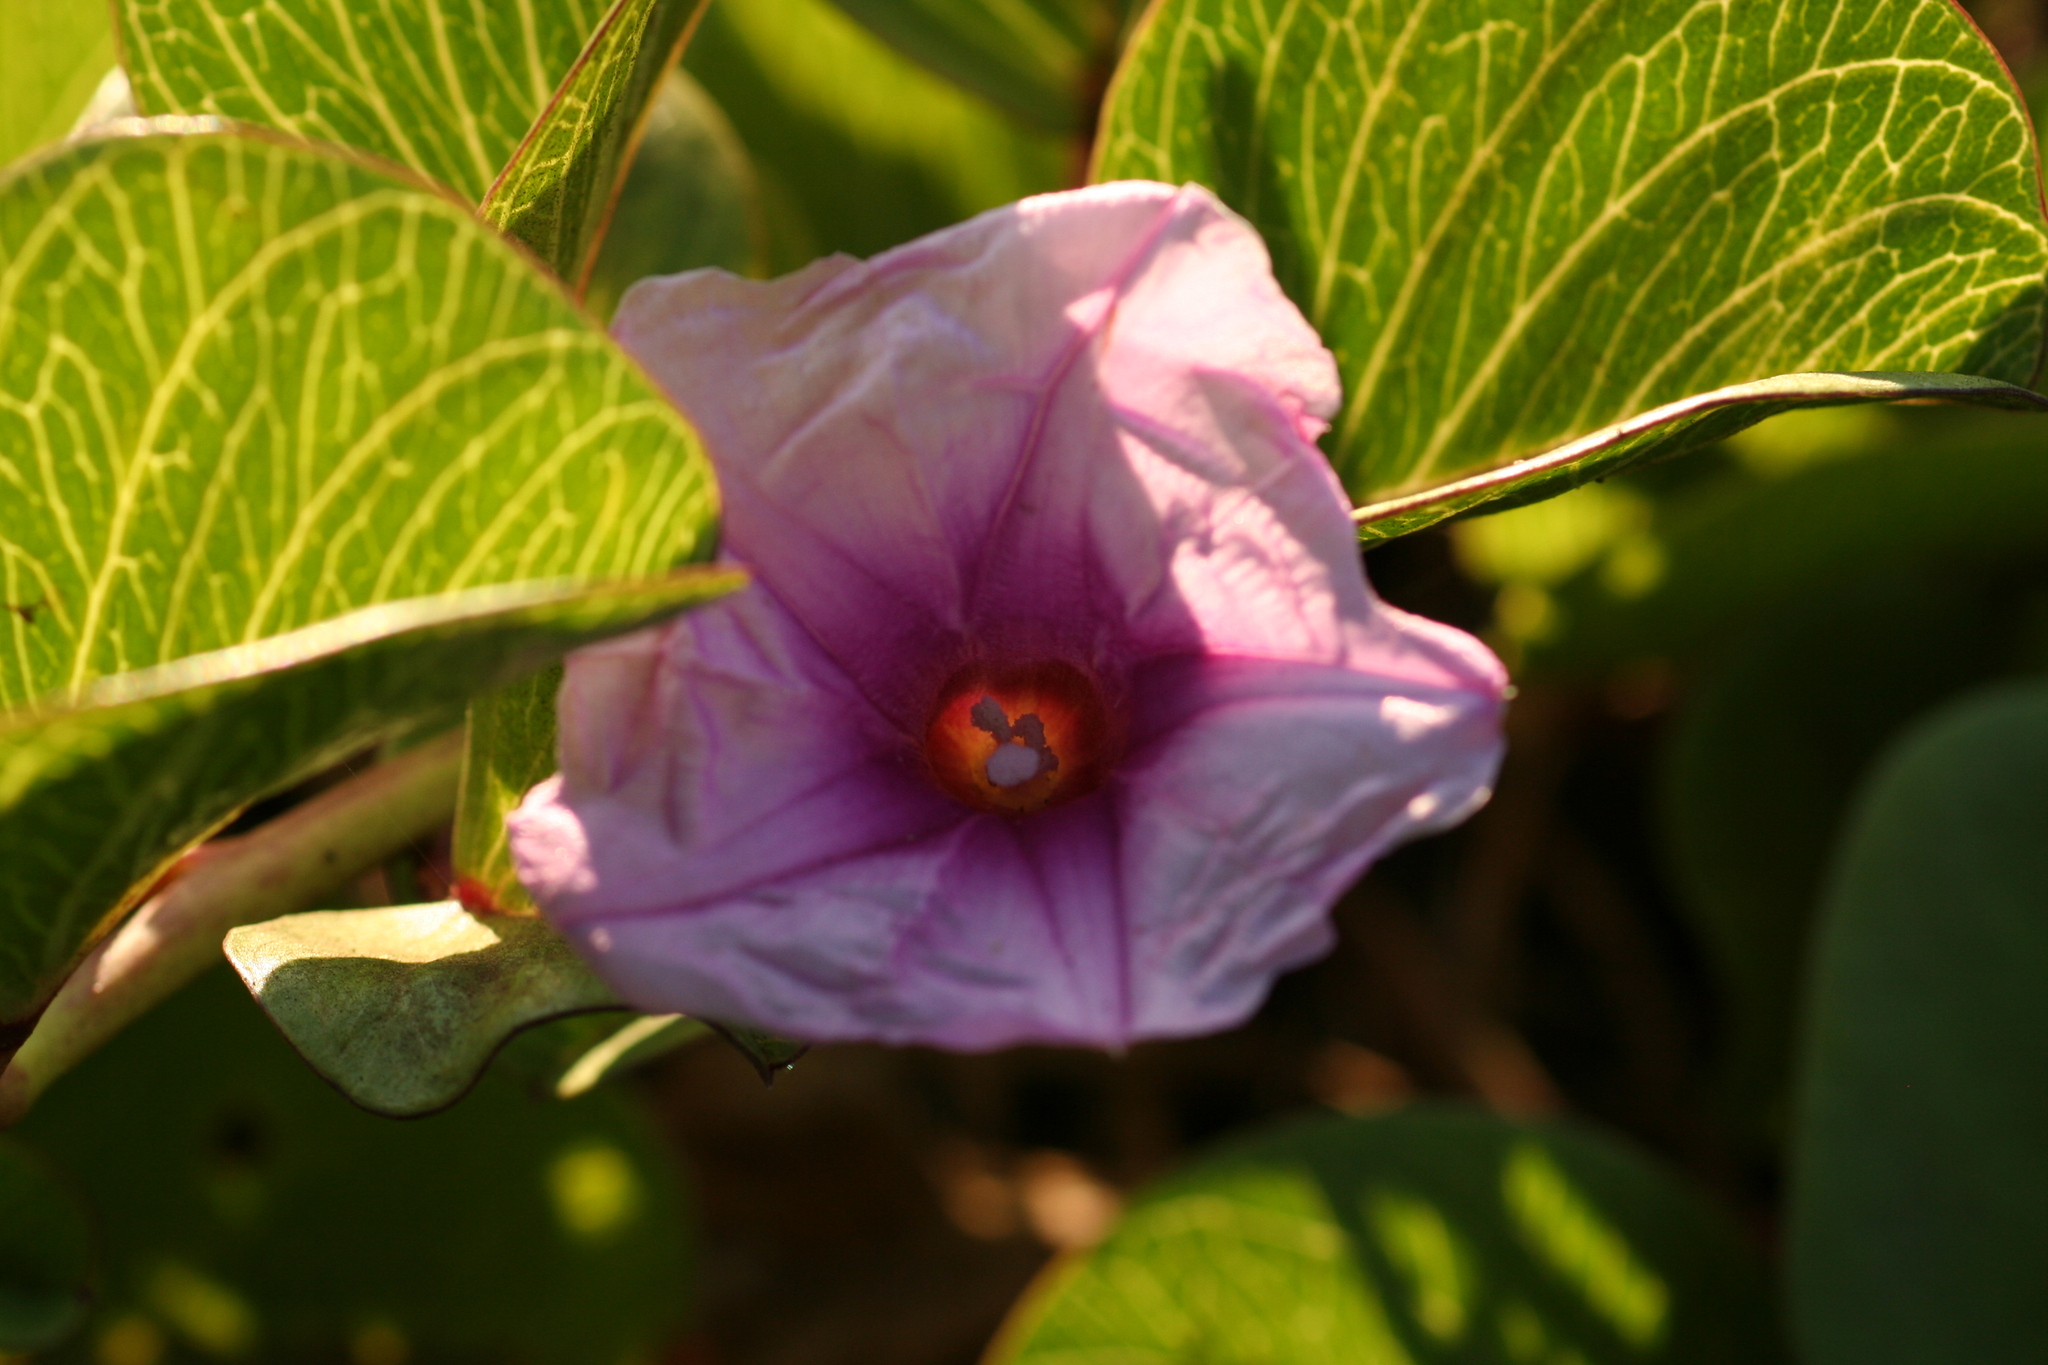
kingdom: Plantae
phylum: Tracheophyta
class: Magnoliopsida
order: Solanales
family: Convolvulaceae
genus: Ipomoea
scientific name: Ipomoea pes-caprae
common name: Beach morning glory
